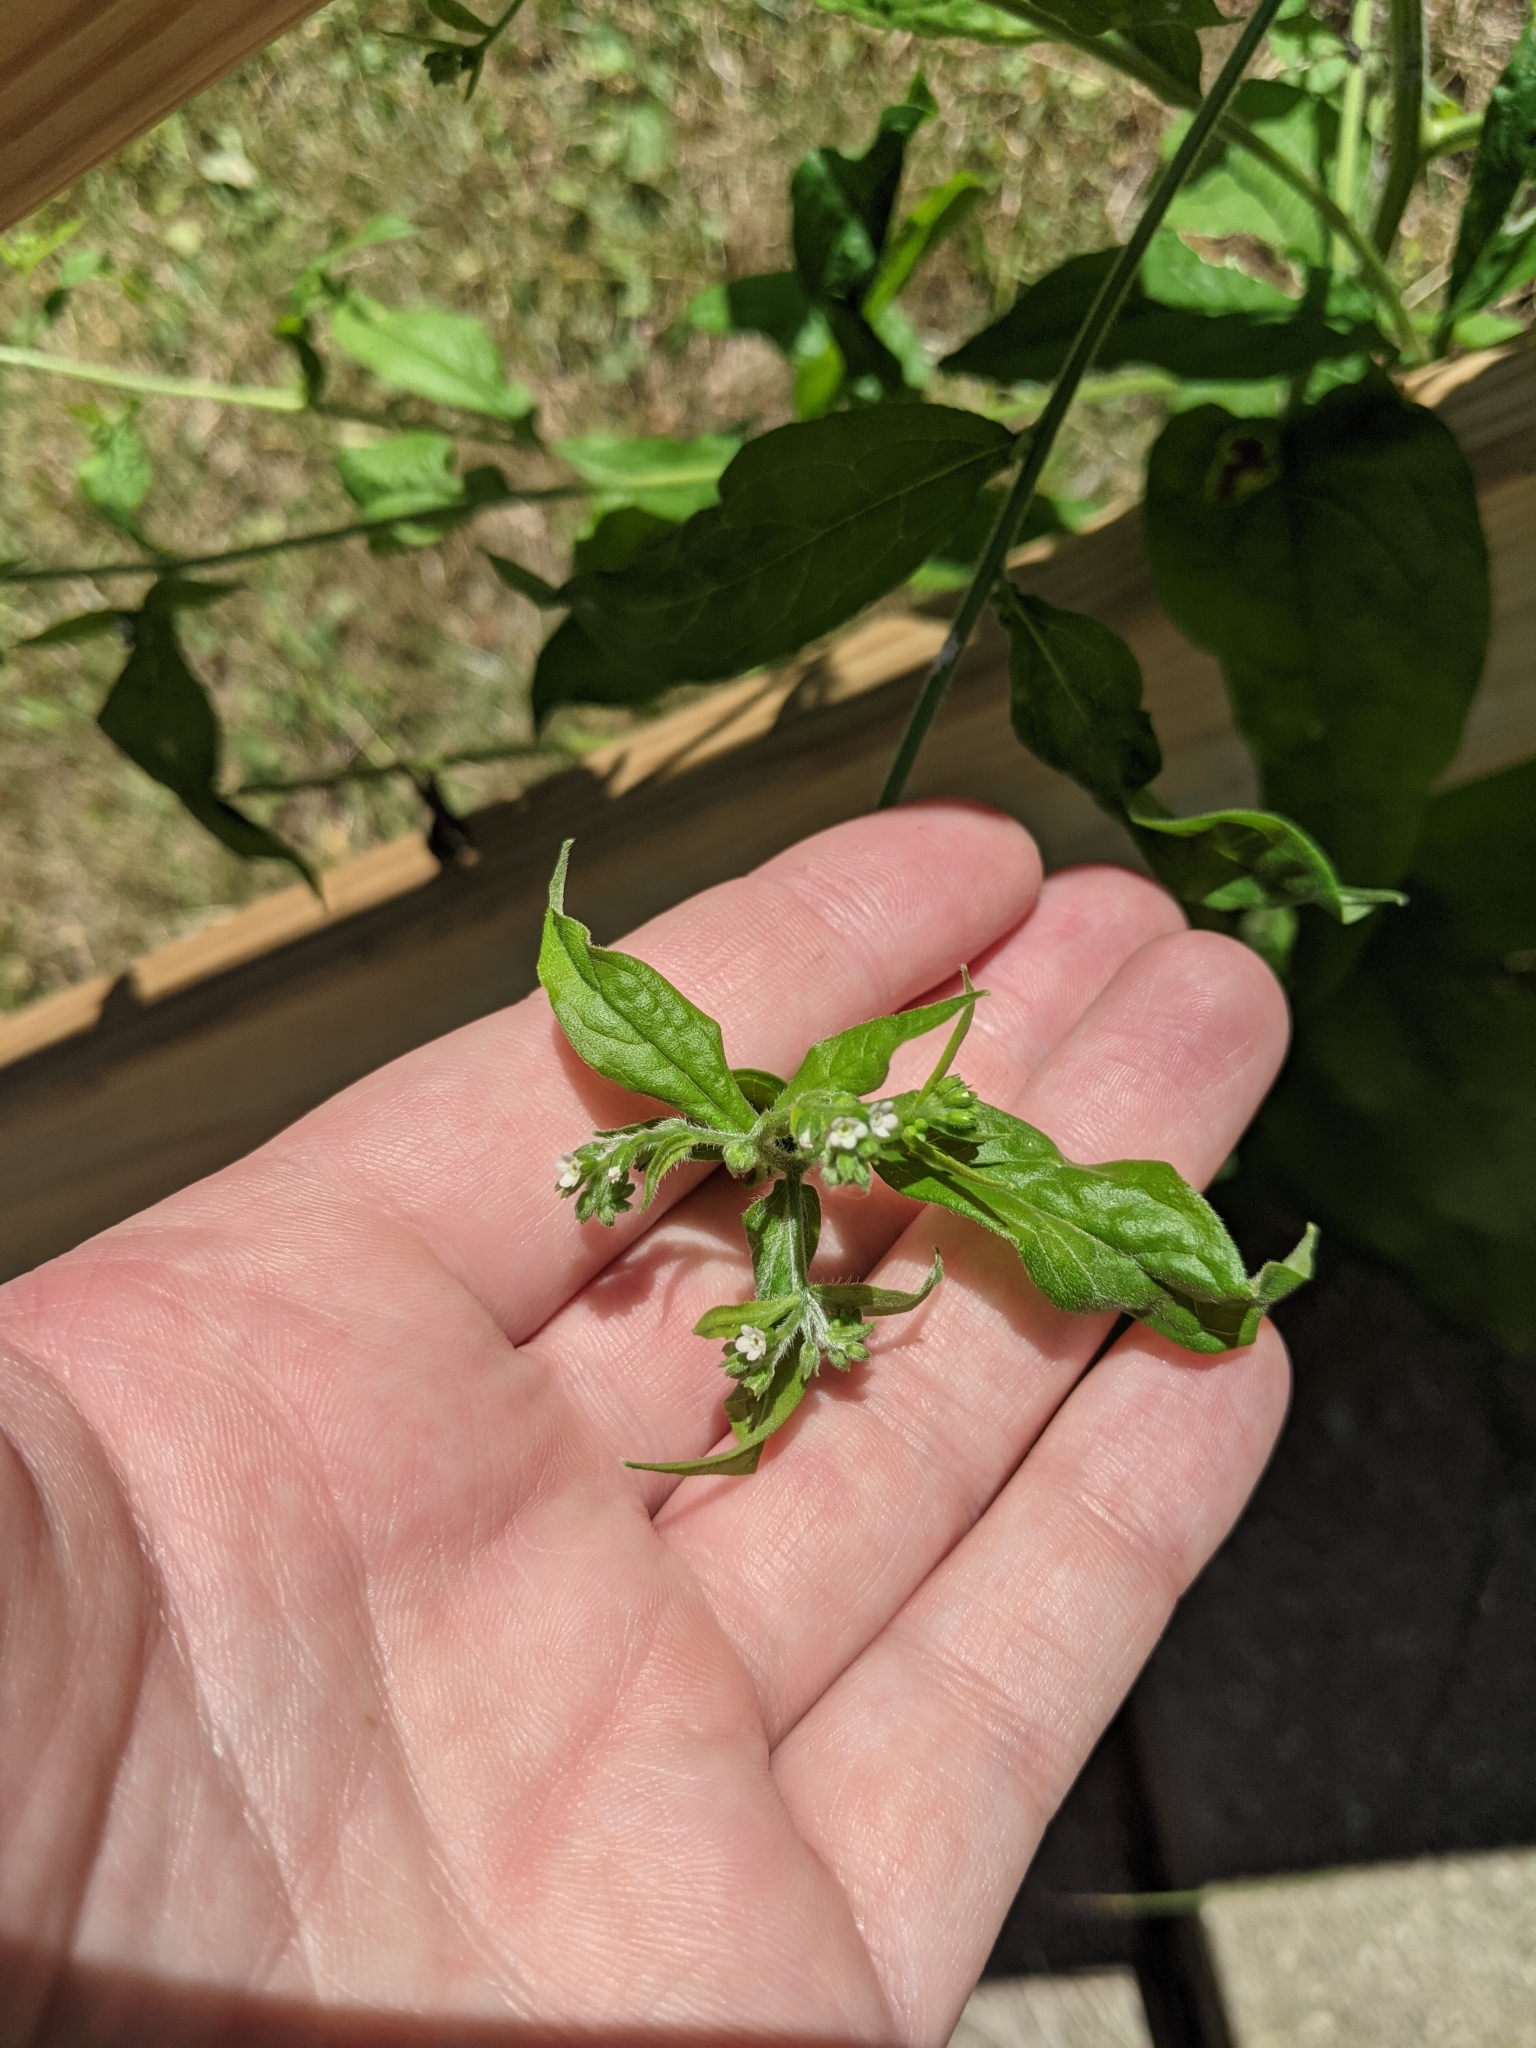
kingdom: Plantae
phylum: Tracheophyta
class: Magnoliopsida
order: Boraginales
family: Boraginaceae
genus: Hackelia
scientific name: Hackelia virginiana
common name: Beggar's-lice
